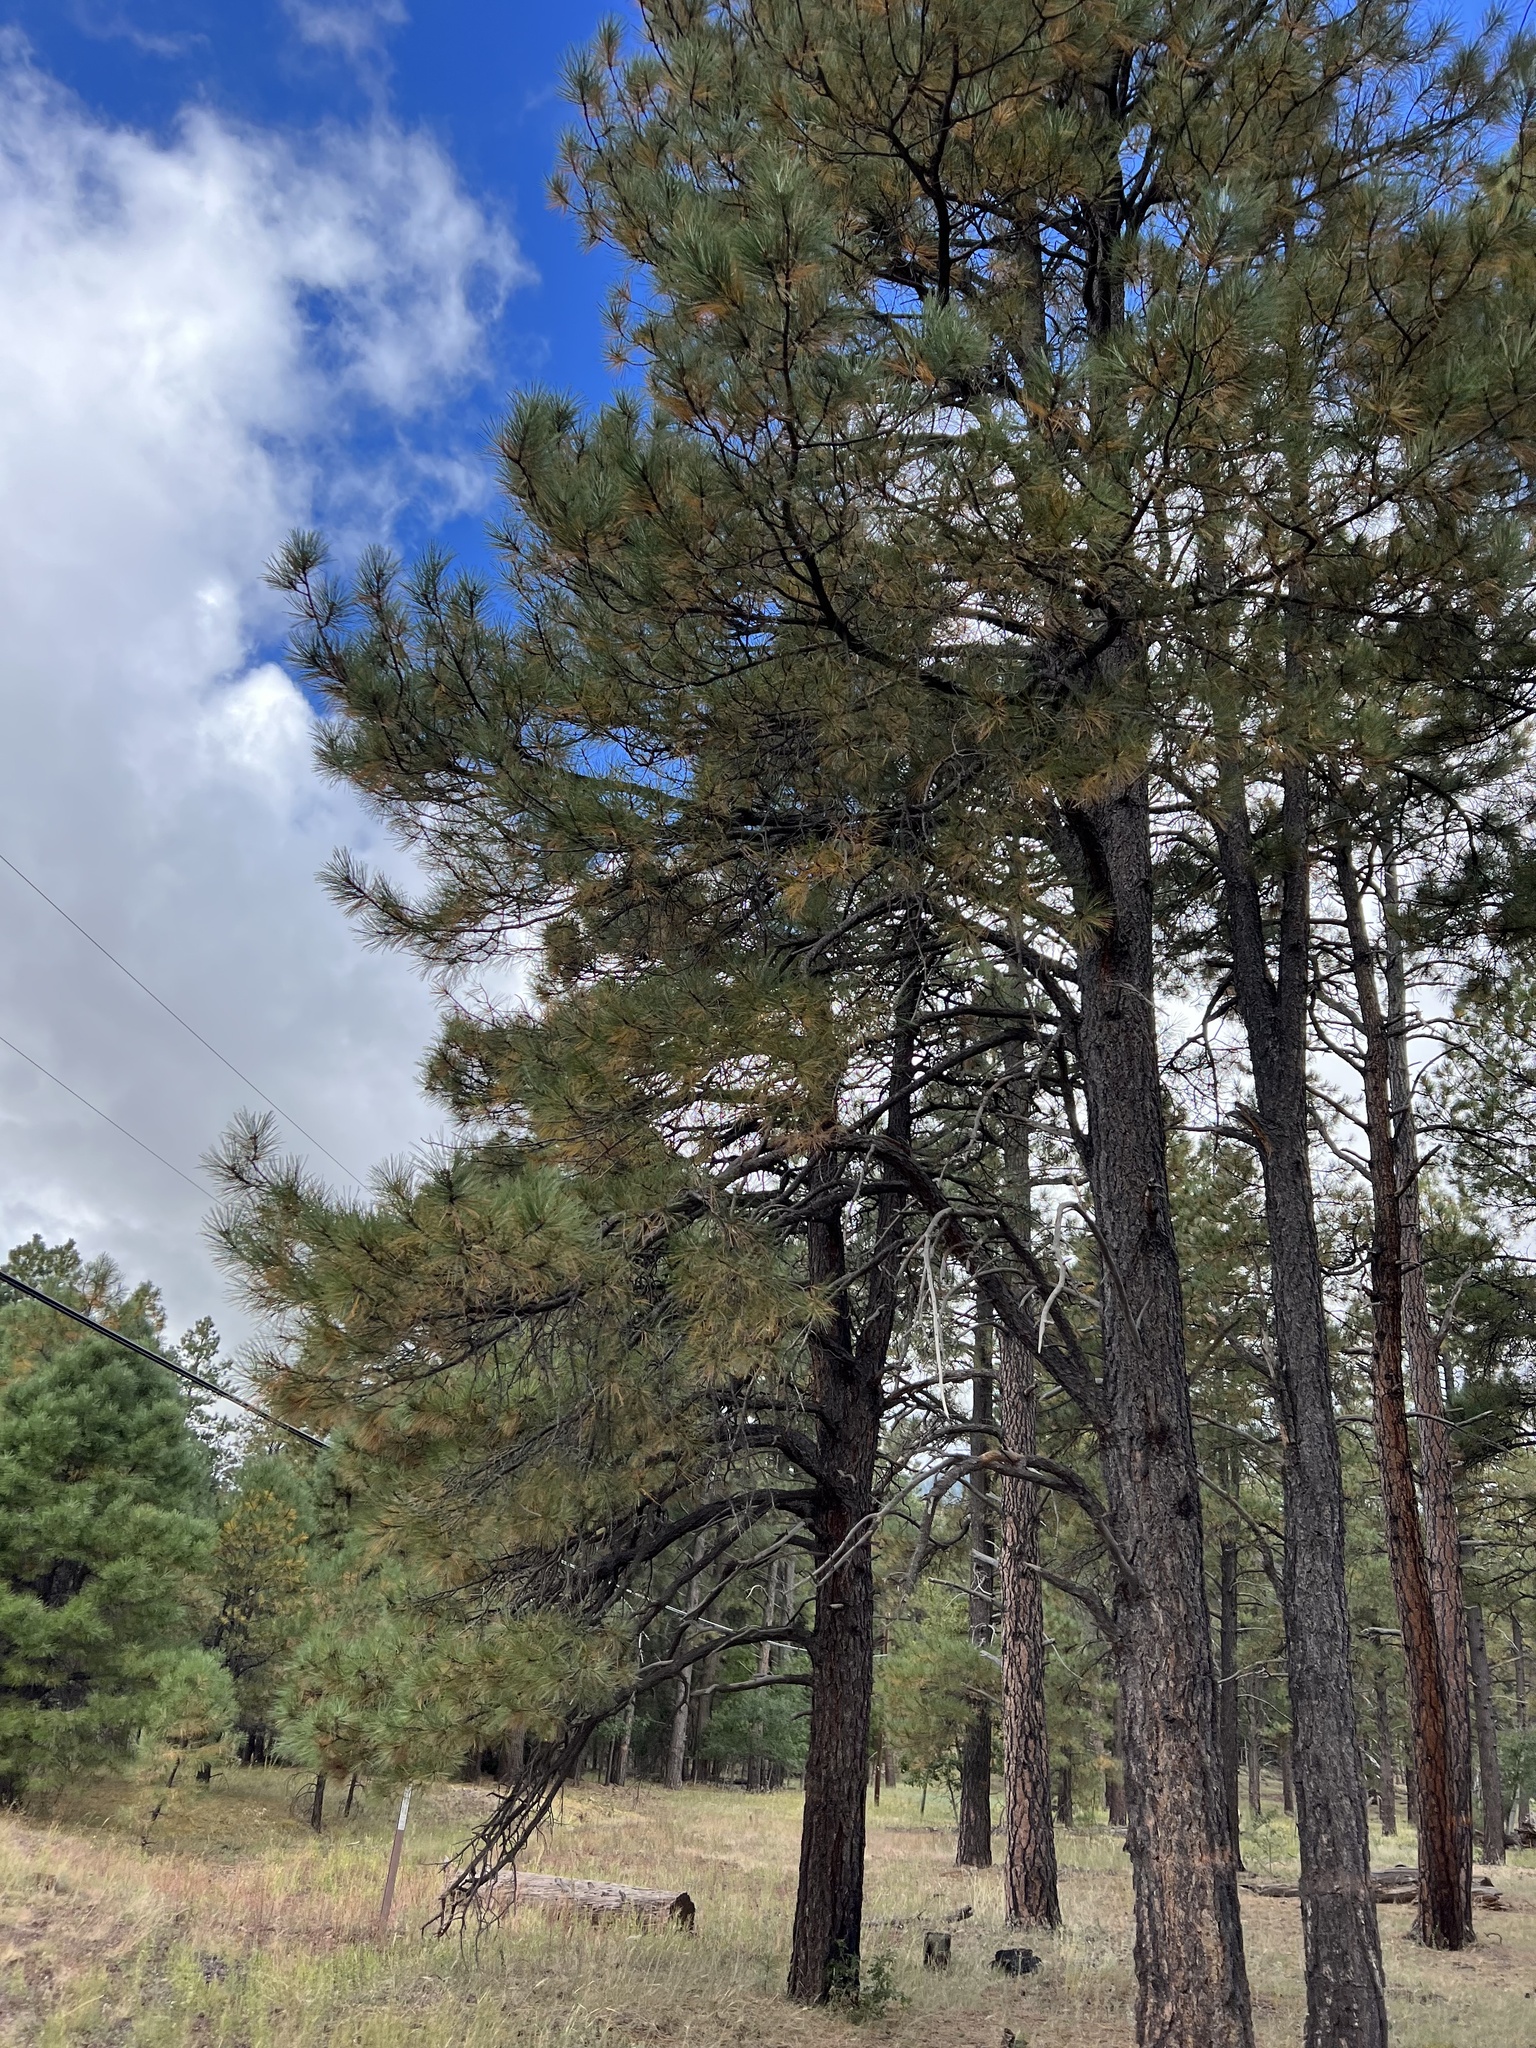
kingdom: Plantae
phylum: Tracheophyta
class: Pinopsida
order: Pinales
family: Pinaceae
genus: Pinus
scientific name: Pinus ponderosa
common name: Western yellow-pine
